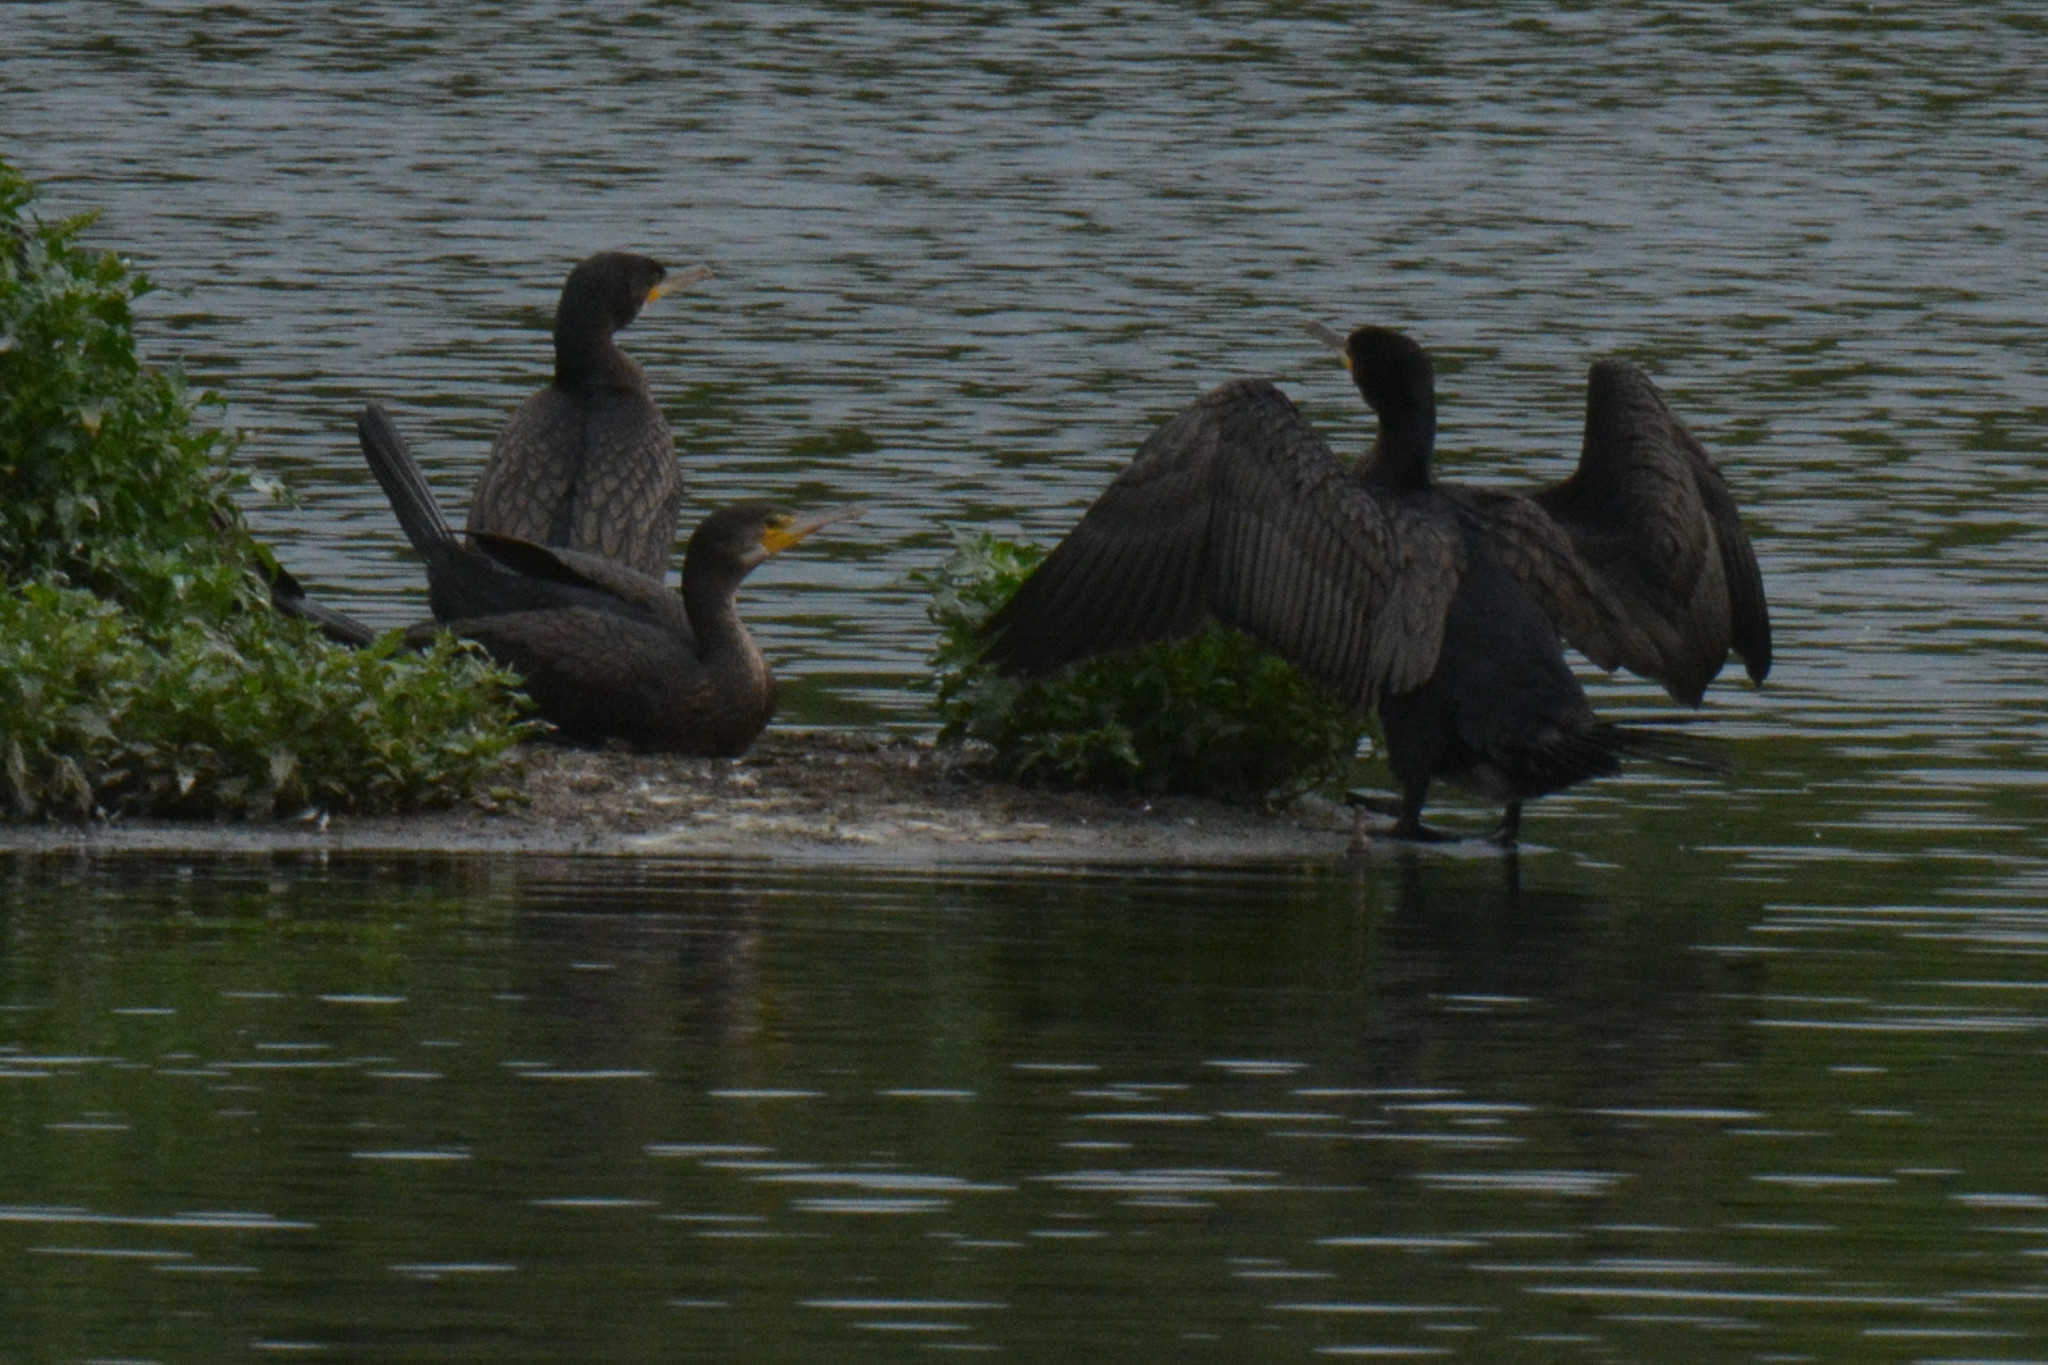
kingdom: Animalia
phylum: Chordata
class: Aves
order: Suliformes
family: Phalacrocoracidae
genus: Phalacrocorax
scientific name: Phalacrocorax carbo
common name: Great cormorant
